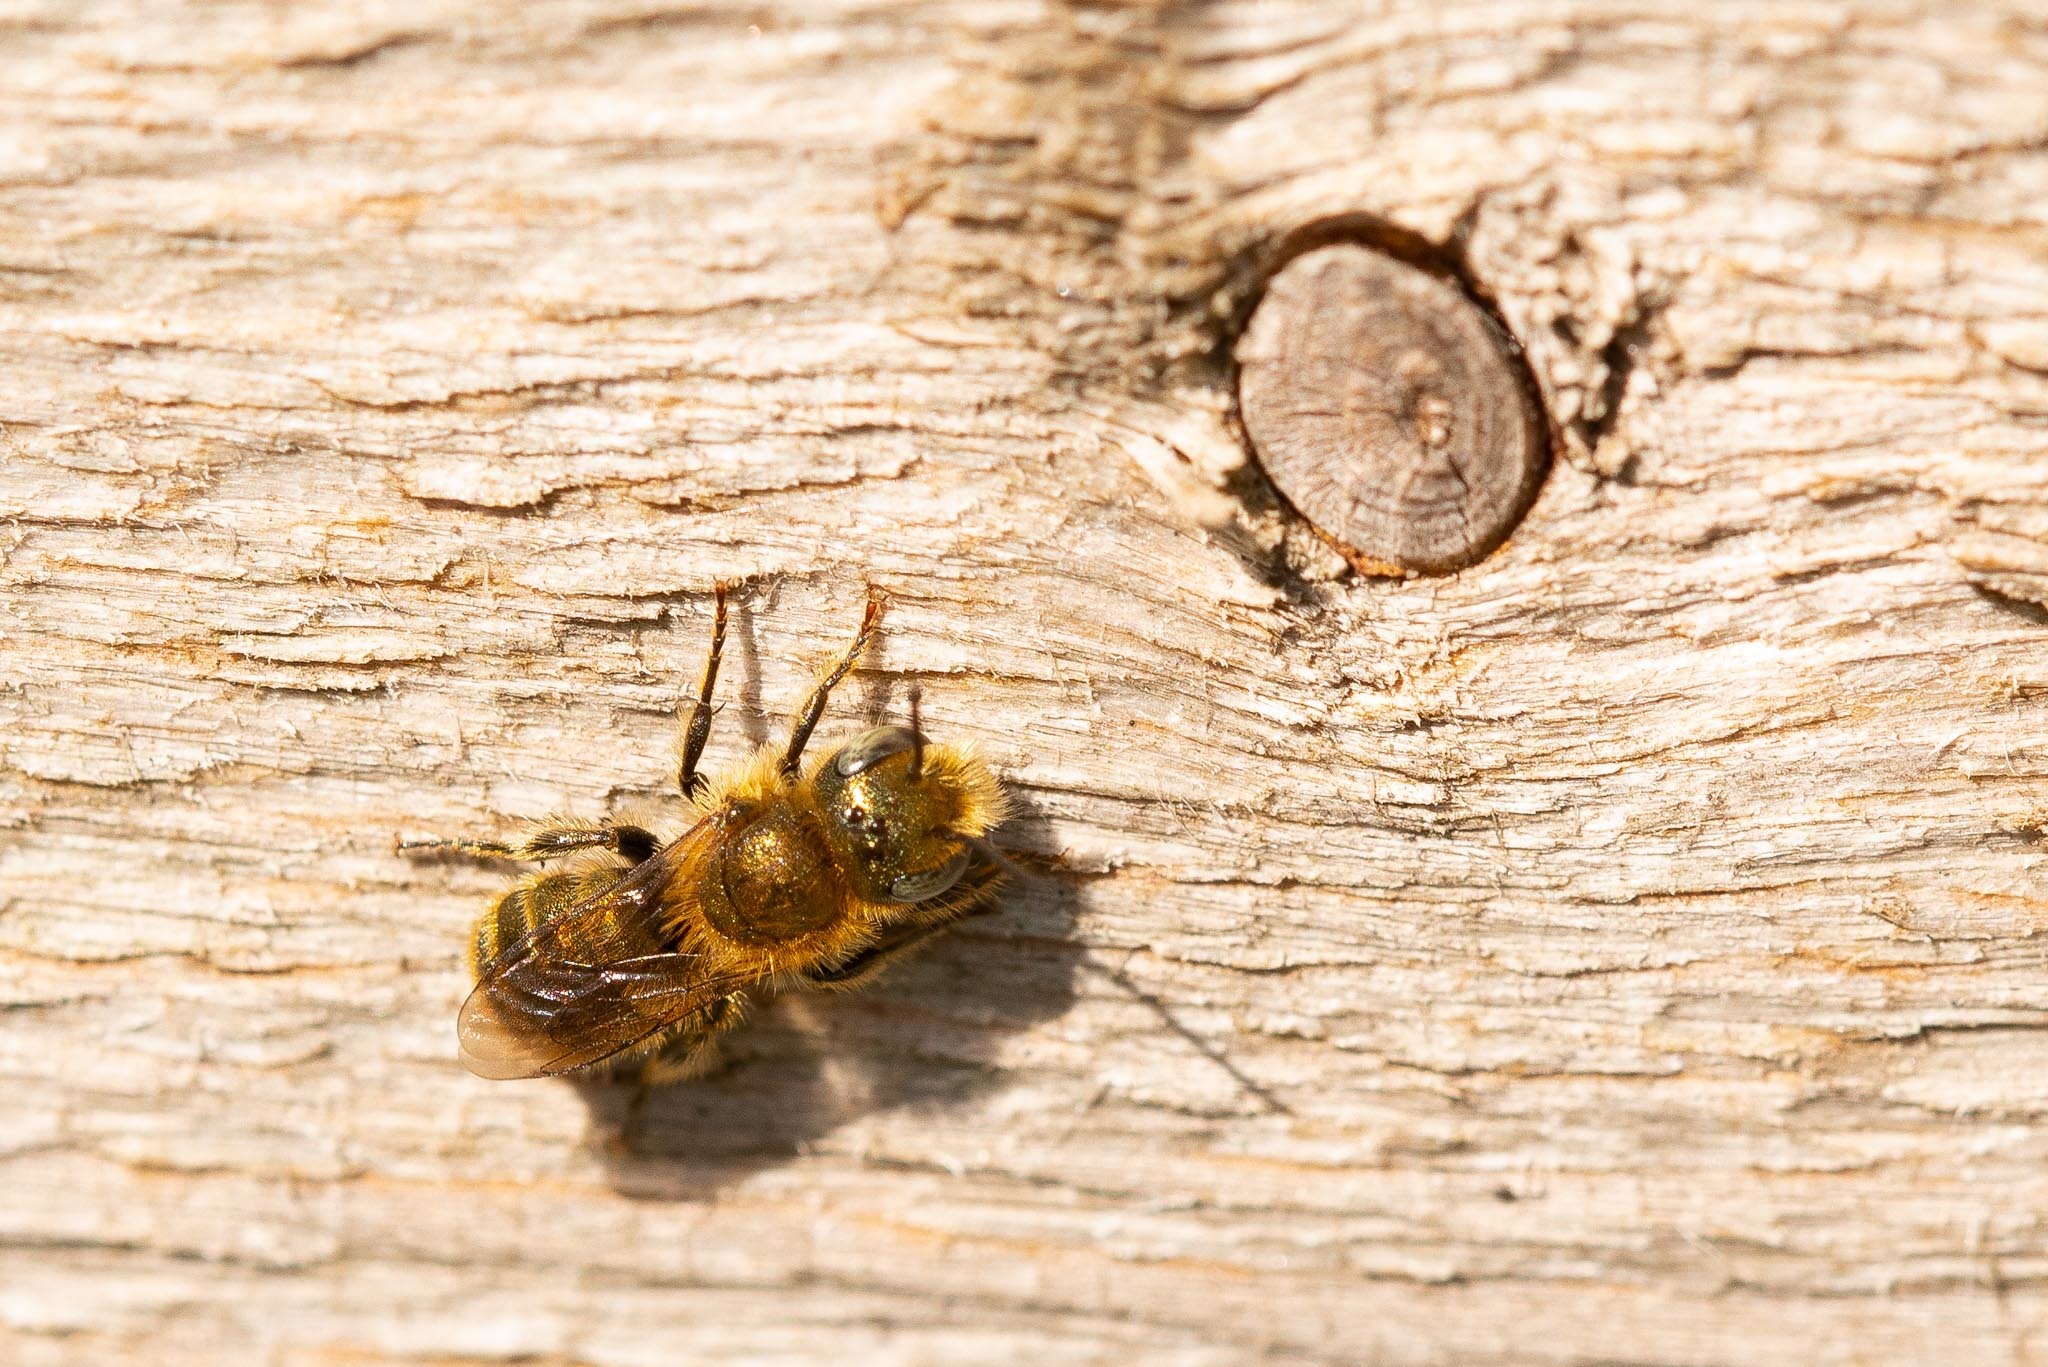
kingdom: Animalia
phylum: Arthropoda
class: Insecta
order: Hymenoptera
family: Megachilidae
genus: Osmia
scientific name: Osmia caerulescens
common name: Blue mason bee
